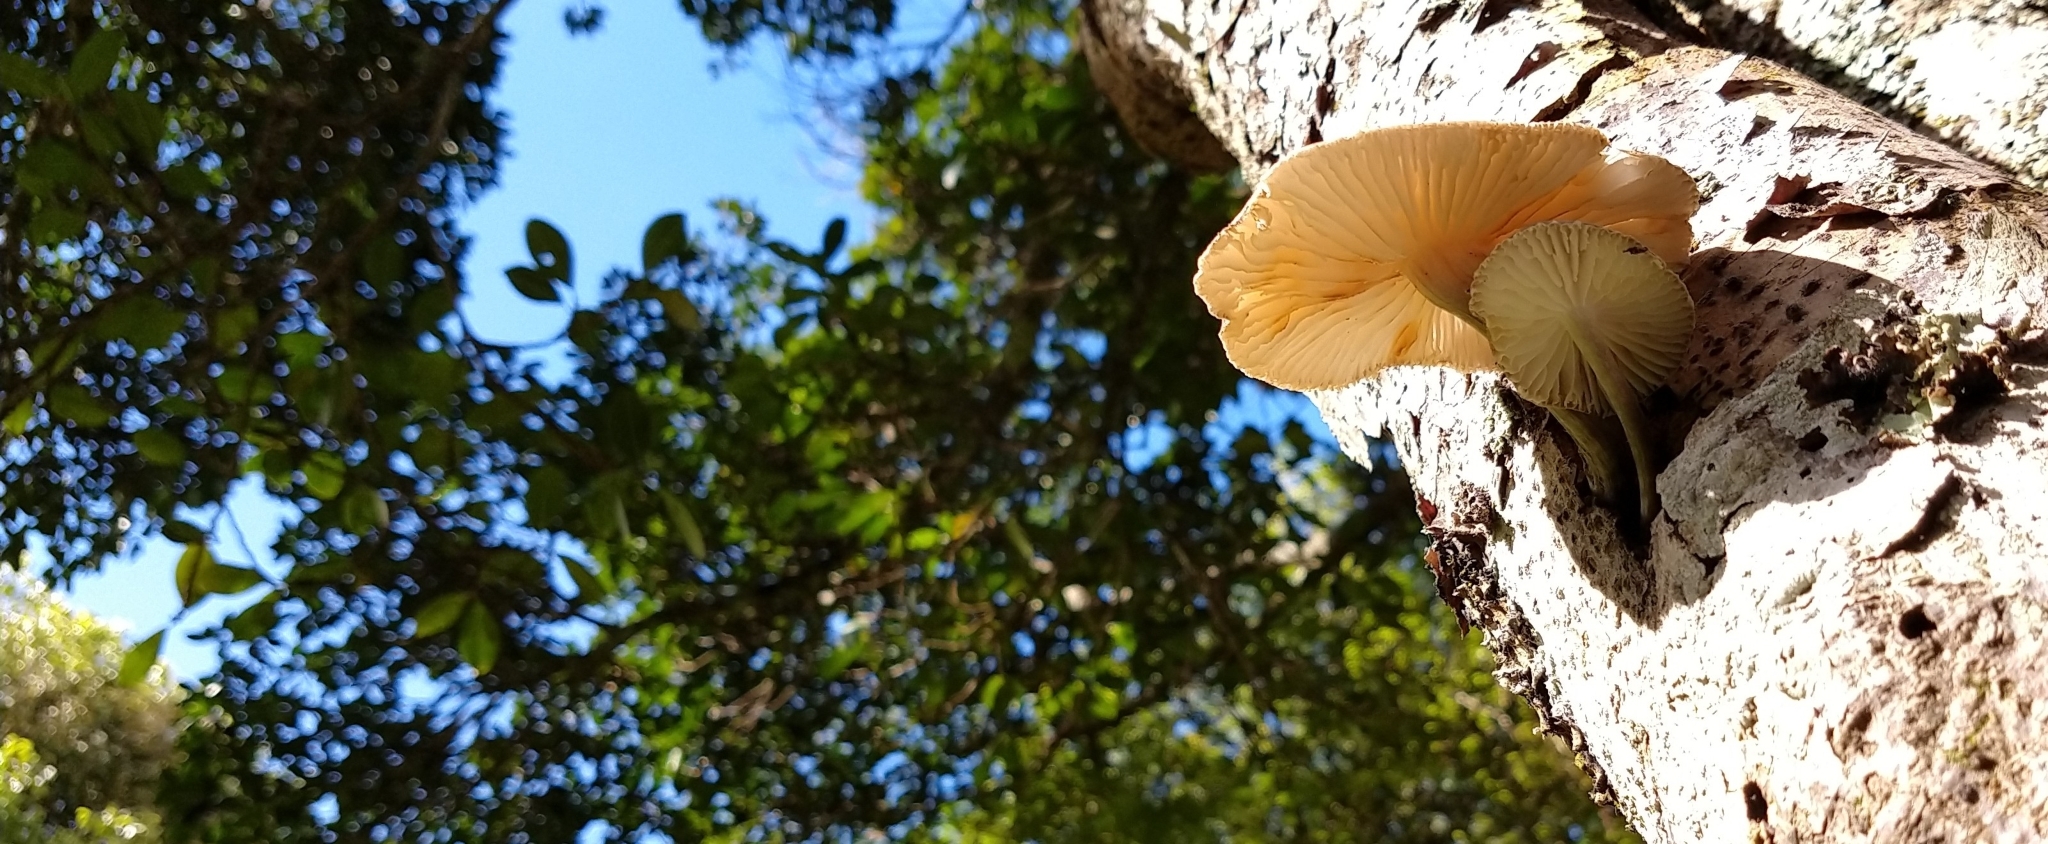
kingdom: Fungi
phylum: Basidiomycota
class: Agaricomycetes
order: Agaricales
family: Physalacriaceae
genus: Oudemansiella
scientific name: Oudemansiella cubensis
